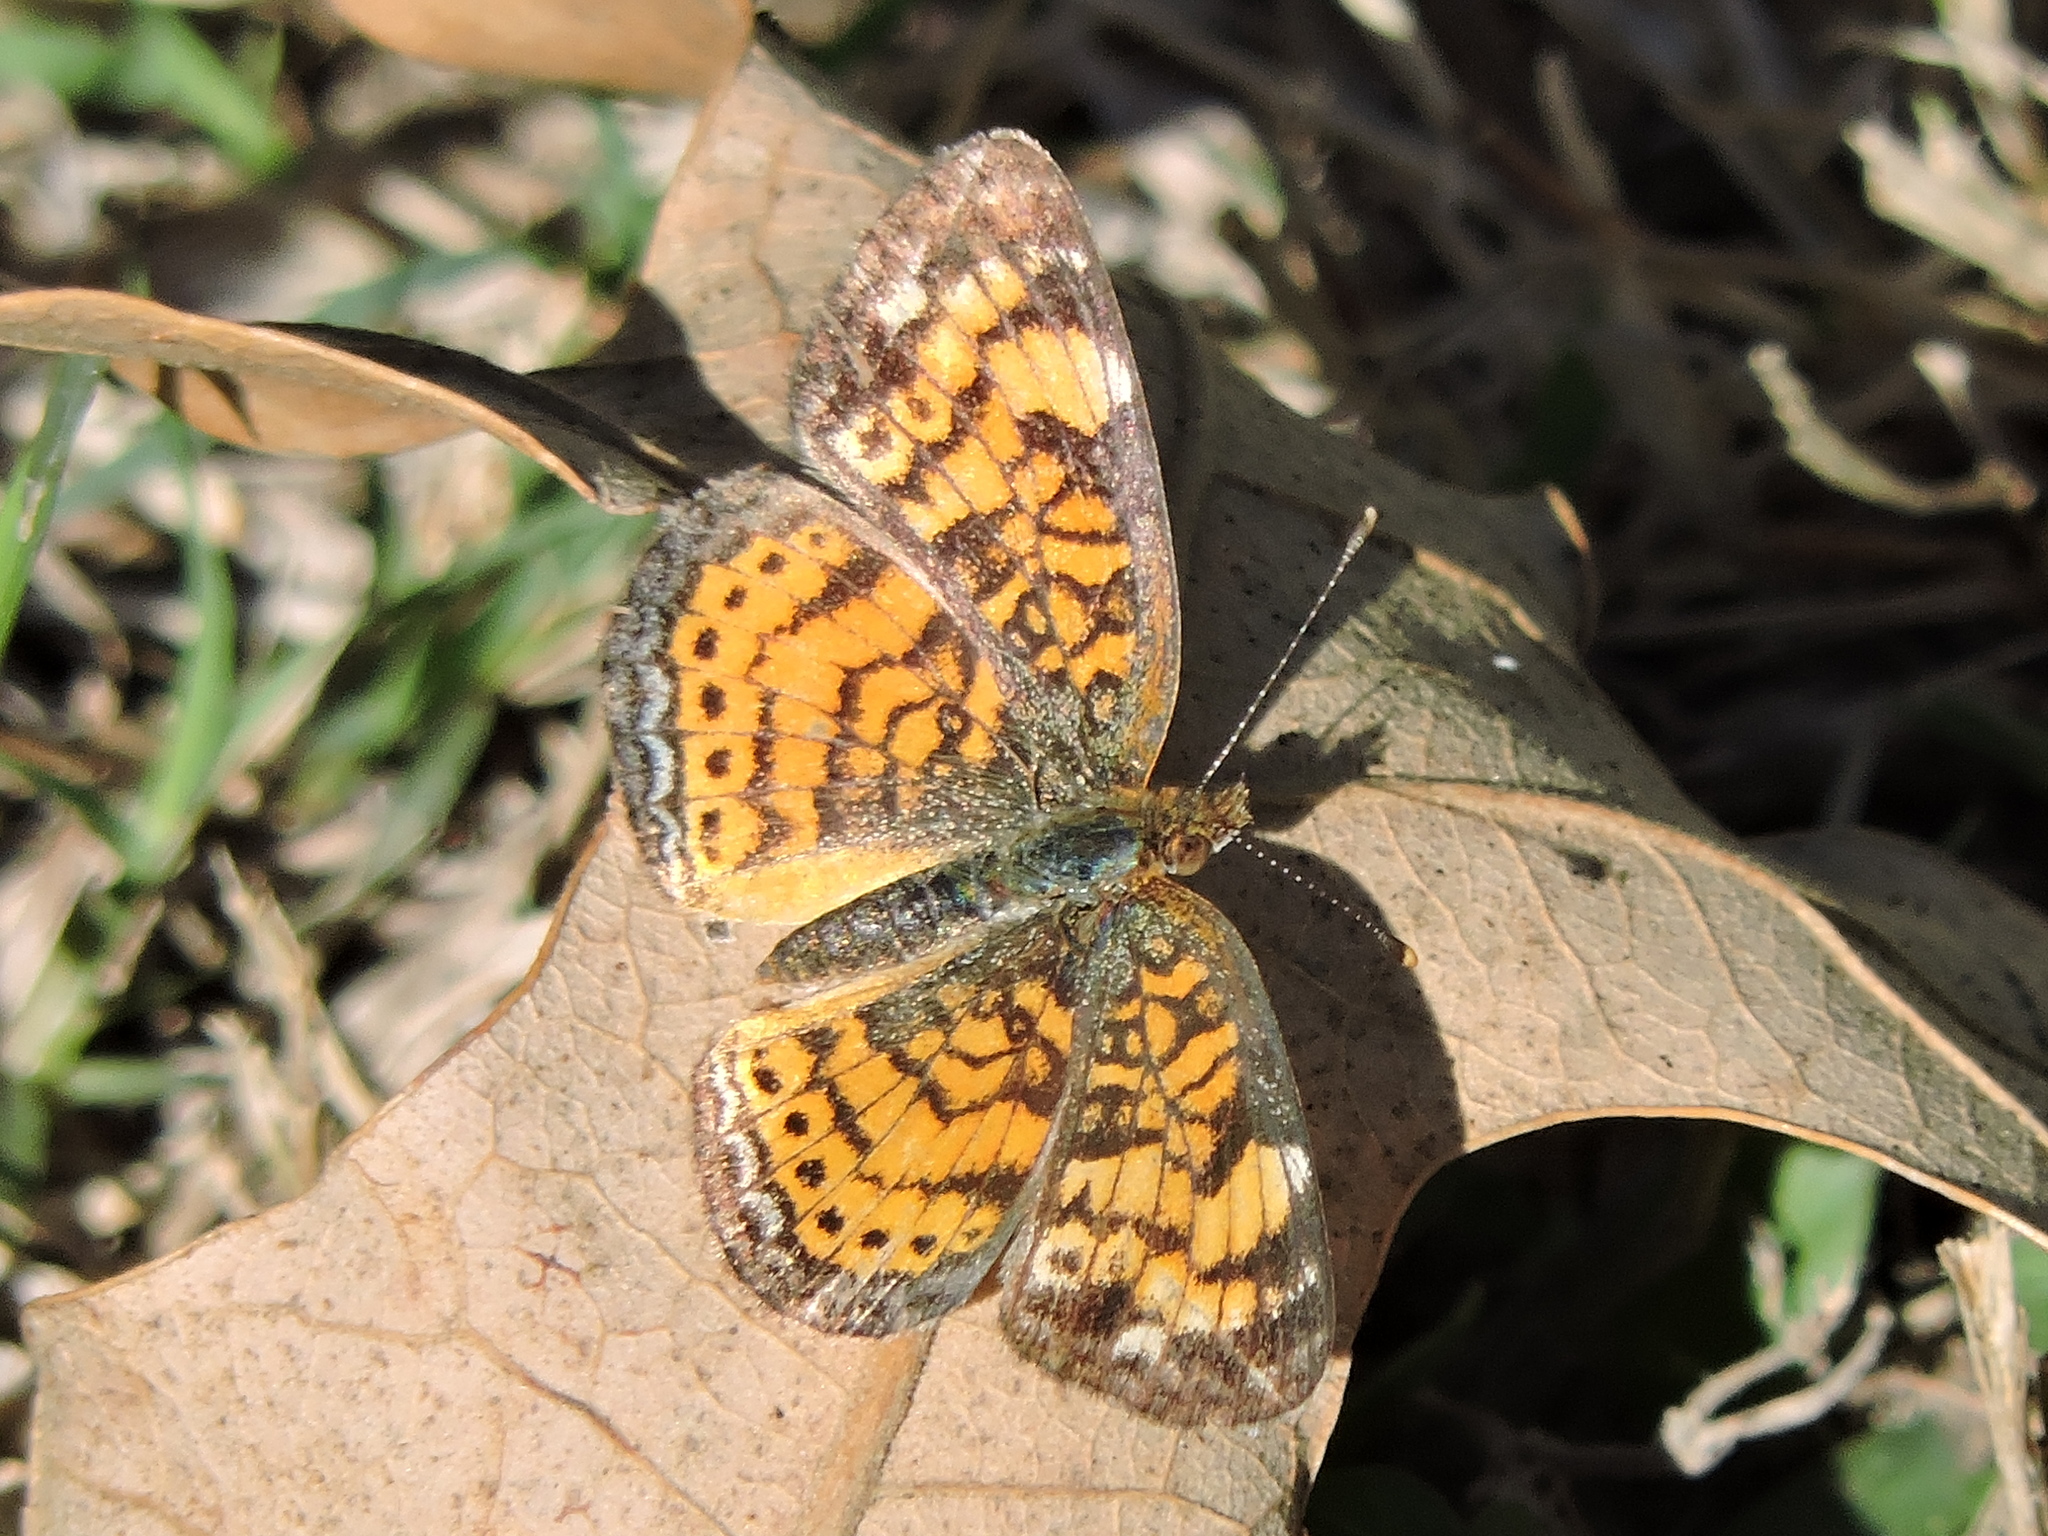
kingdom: Animalia
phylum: Arthropoda
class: Insecta
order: Lepidoptera
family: Nymphalidae
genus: Phyciodes
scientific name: Phyciodes tharos
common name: Pearl crescent
